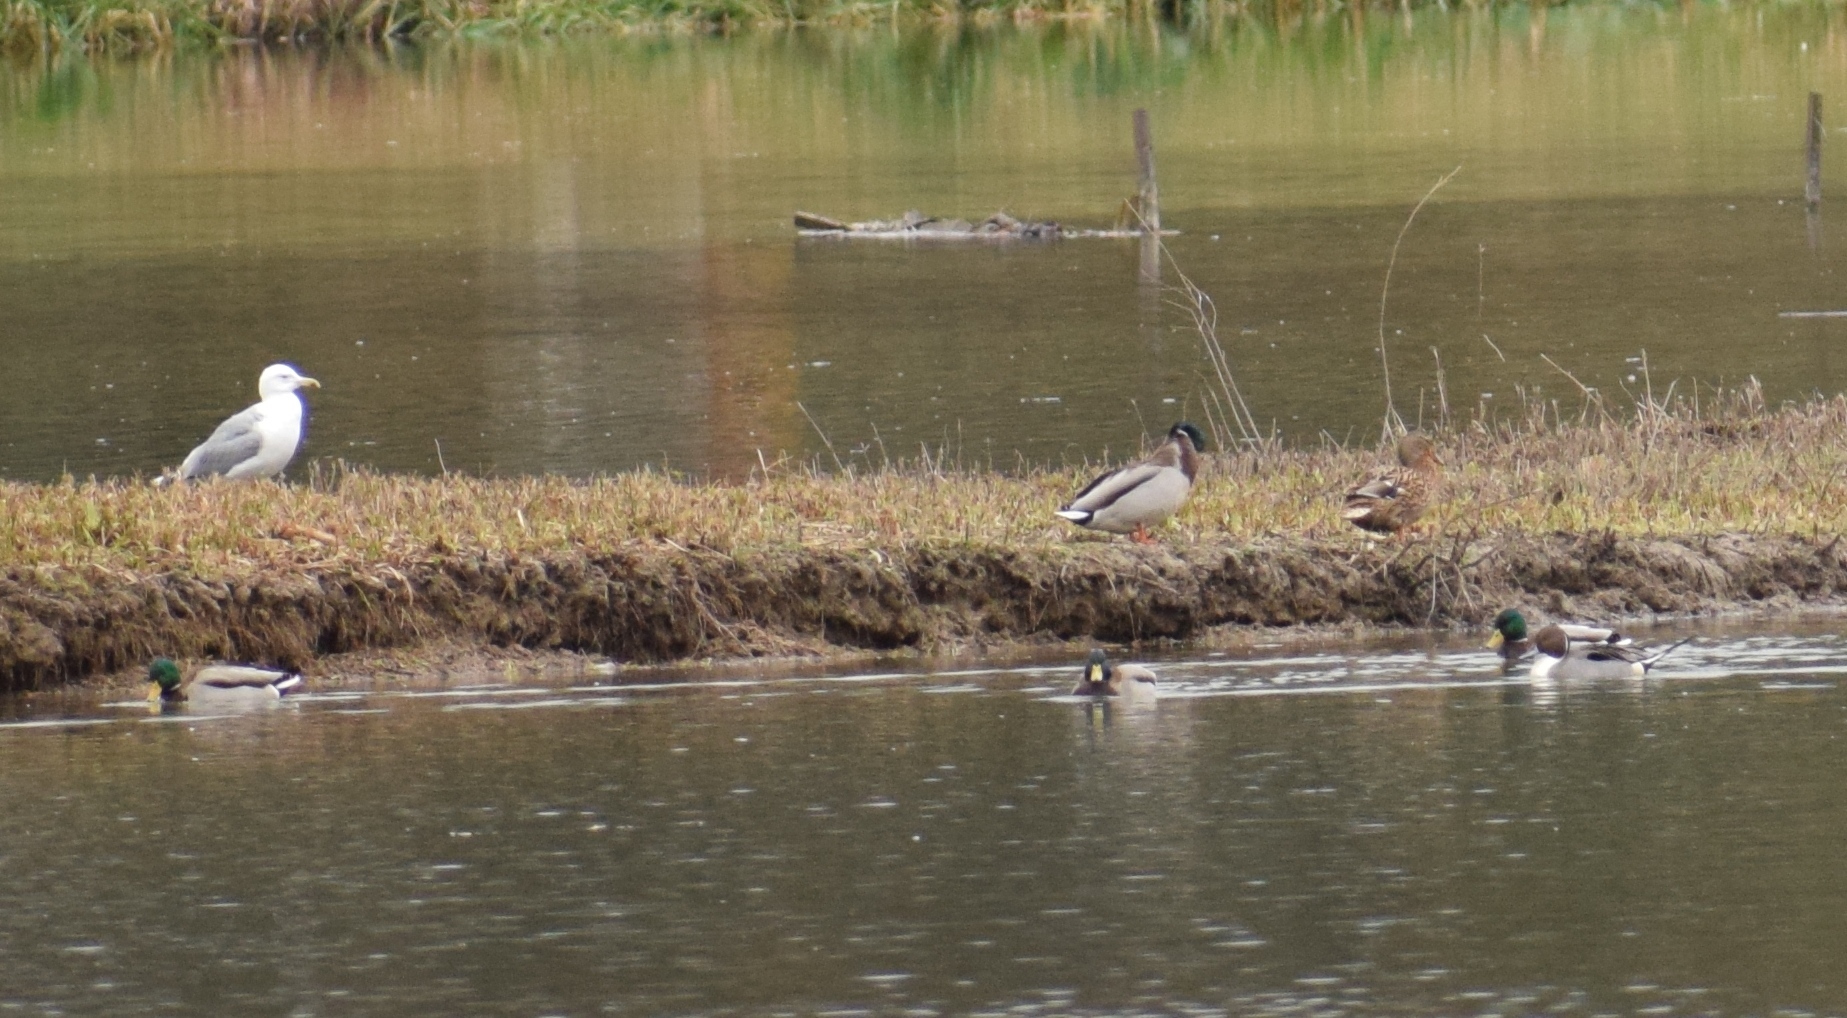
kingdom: Animalia
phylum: Chordata
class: Aves
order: Anseriformes
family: Anatidae
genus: Anas
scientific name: Anas platyrhynchos
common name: Mallard
